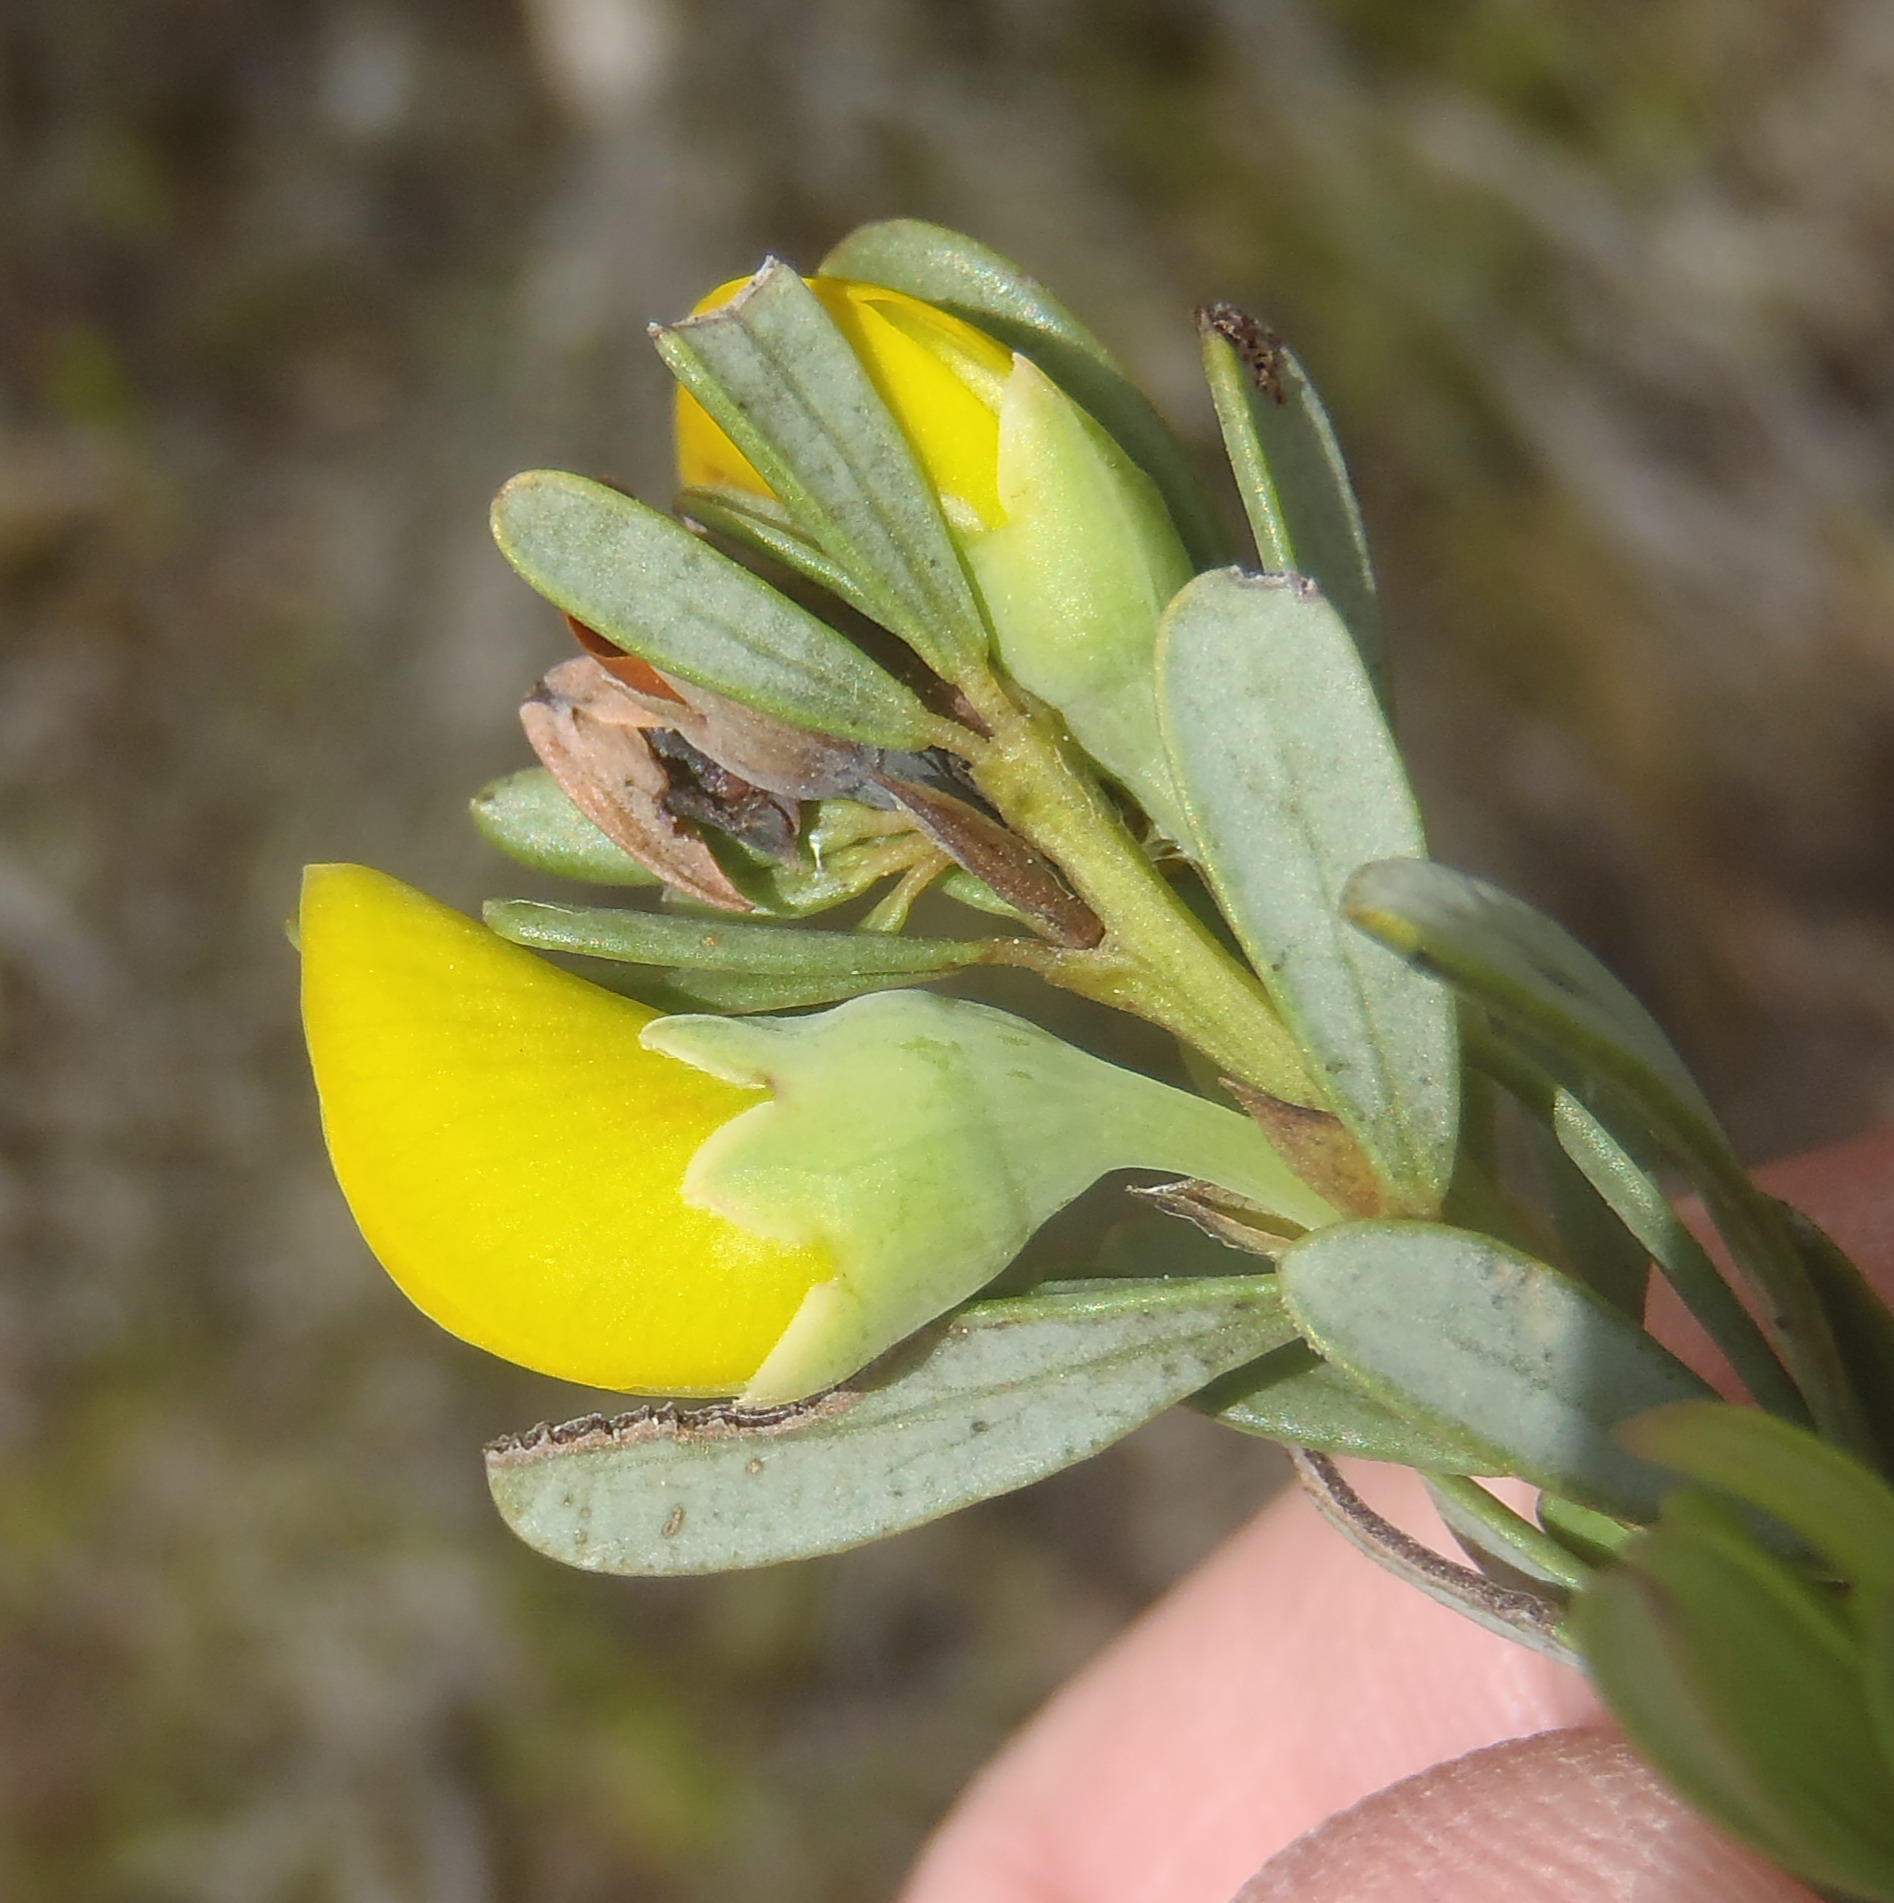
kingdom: Plantae
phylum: Tracheophyta
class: Magnoliopsida
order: Fabales
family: Fabaceae
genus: Cyclopia
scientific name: Cyclopia subternata
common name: Honeybush tea
